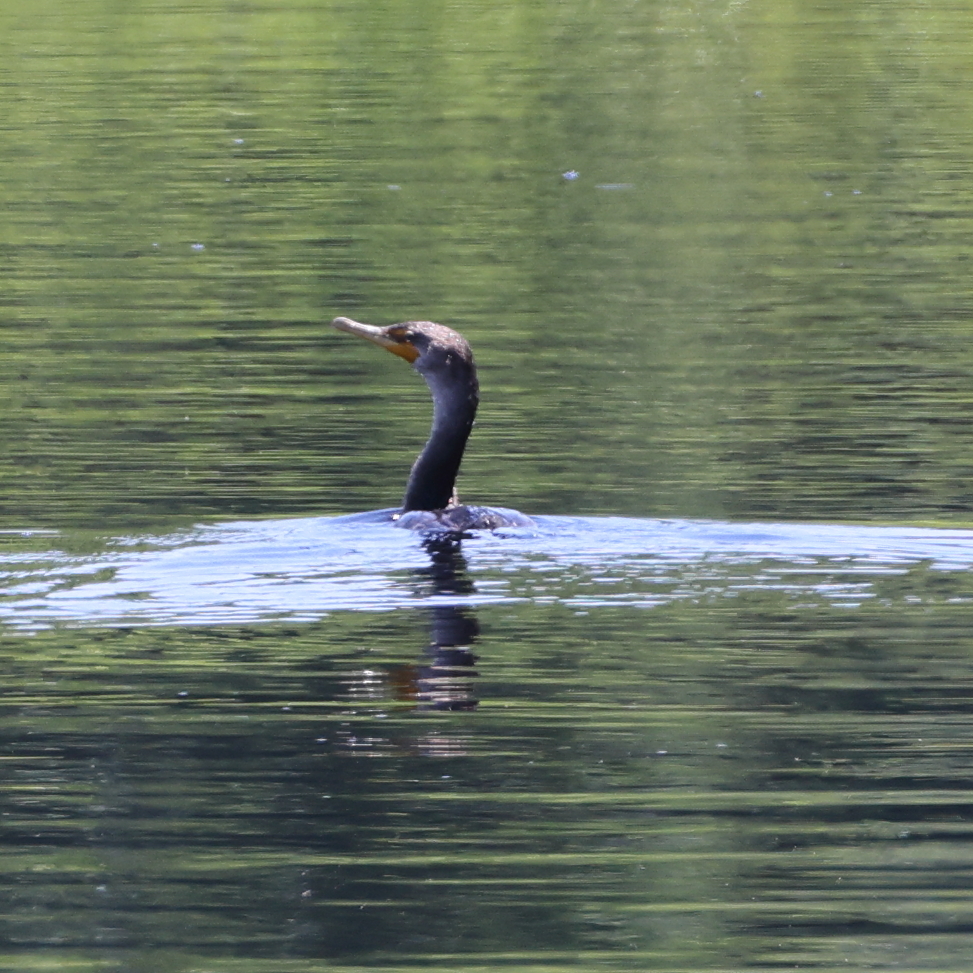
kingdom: Animalia
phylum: Chordata
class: Aves
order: Suliformes
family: Phalacrocoracidae
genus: Phalacrocorax
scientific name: Phalacrocorax auritus
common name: Double-crested cormorant
